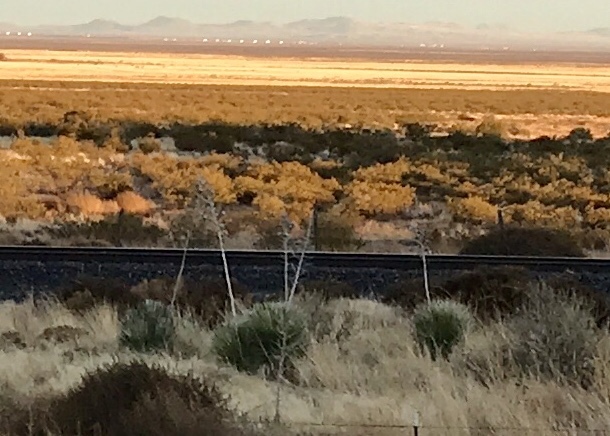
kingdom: Plantae
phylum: Tracheophyta
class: Liliopsida
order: Asparagales
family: Asparagaceae
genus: Yucca
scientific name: Yucca elata
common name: Palmella
